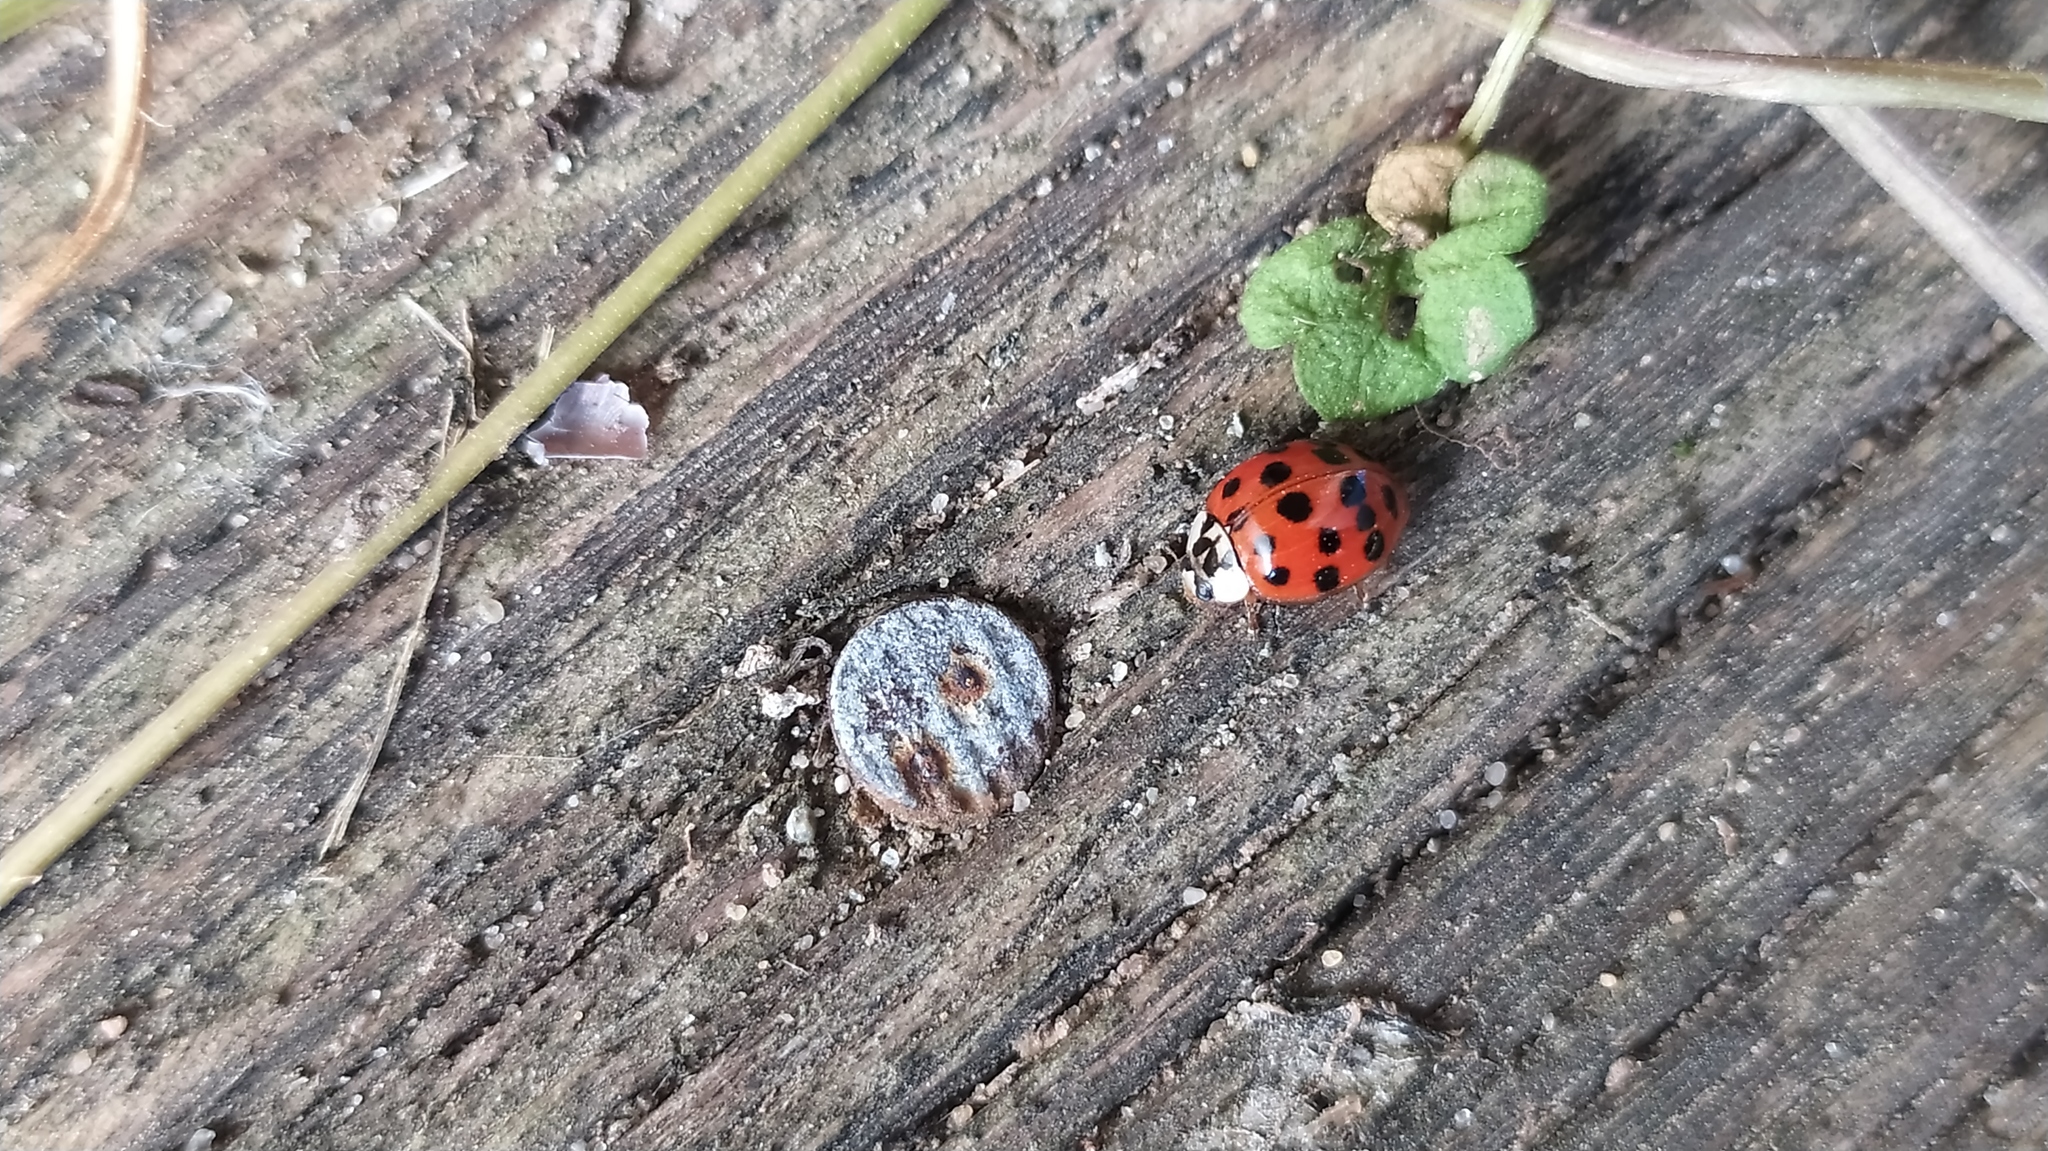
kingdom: Animalia
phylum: Arthropoda
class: Insecta
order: Coleoptera
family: Coccinellidae
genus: Harmonia
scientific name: Harmonia axyridis
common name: Harlequin ladybird
